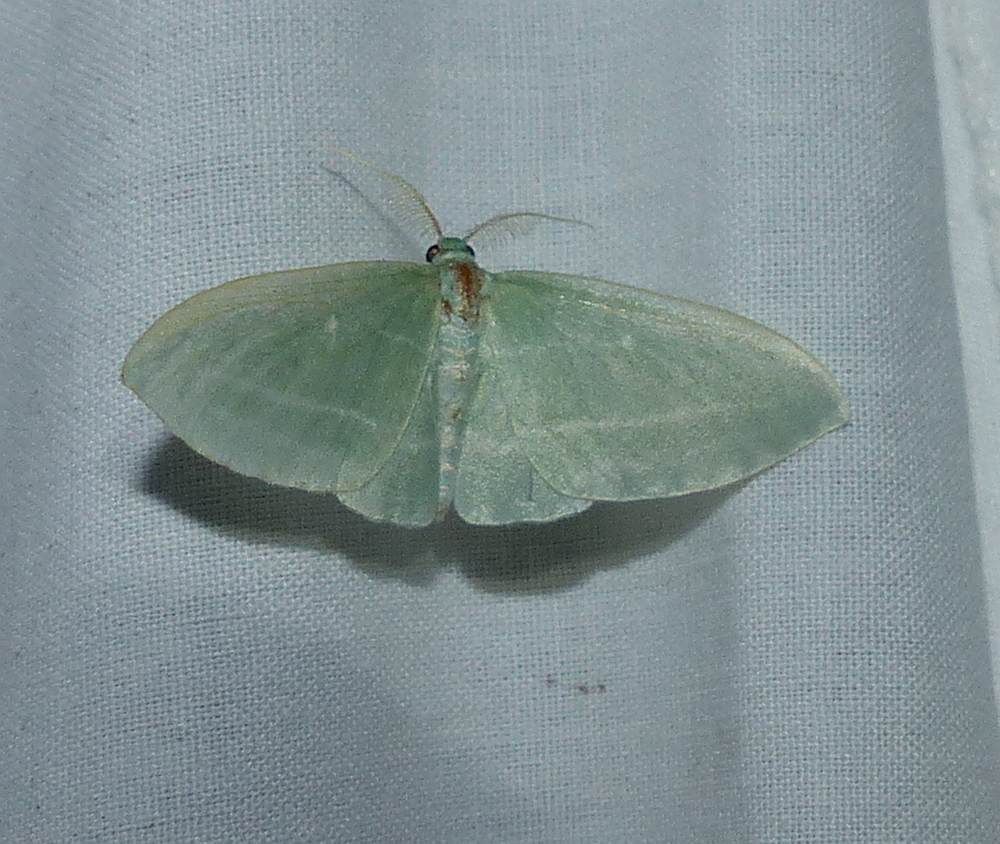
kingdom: Animalia
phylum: Arthropoda
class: Insecta
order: Lepidoptera
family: Geometridae
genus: Dyspteris
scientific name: Dyspteris abortivaria
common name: Bad-wing
